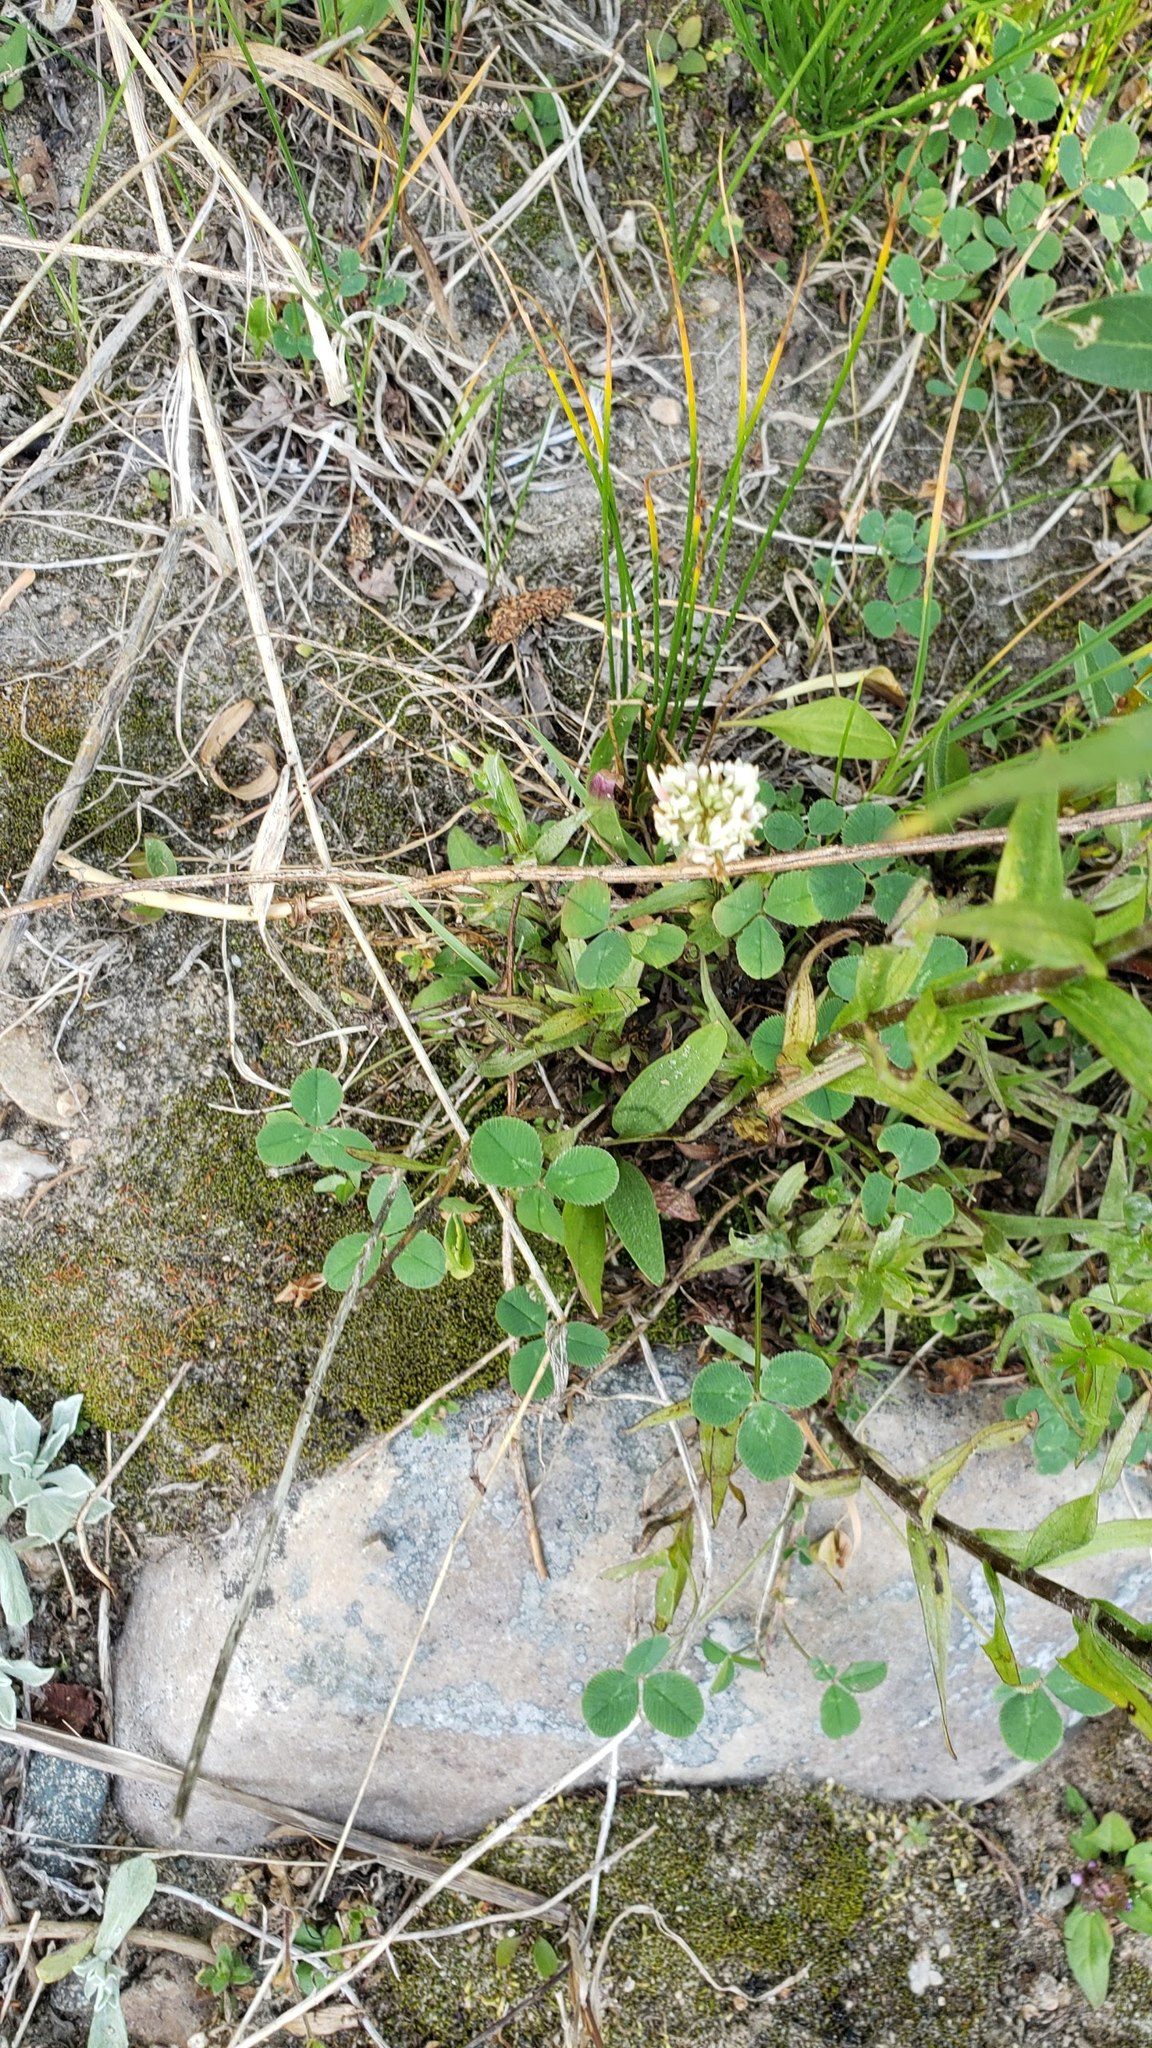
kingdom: Plantae
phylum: Tracheophyta
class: Magnoliopsida
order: Fabales
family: Fabaceae
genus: Trifolium
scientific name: Trifolium repens
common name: White clover
